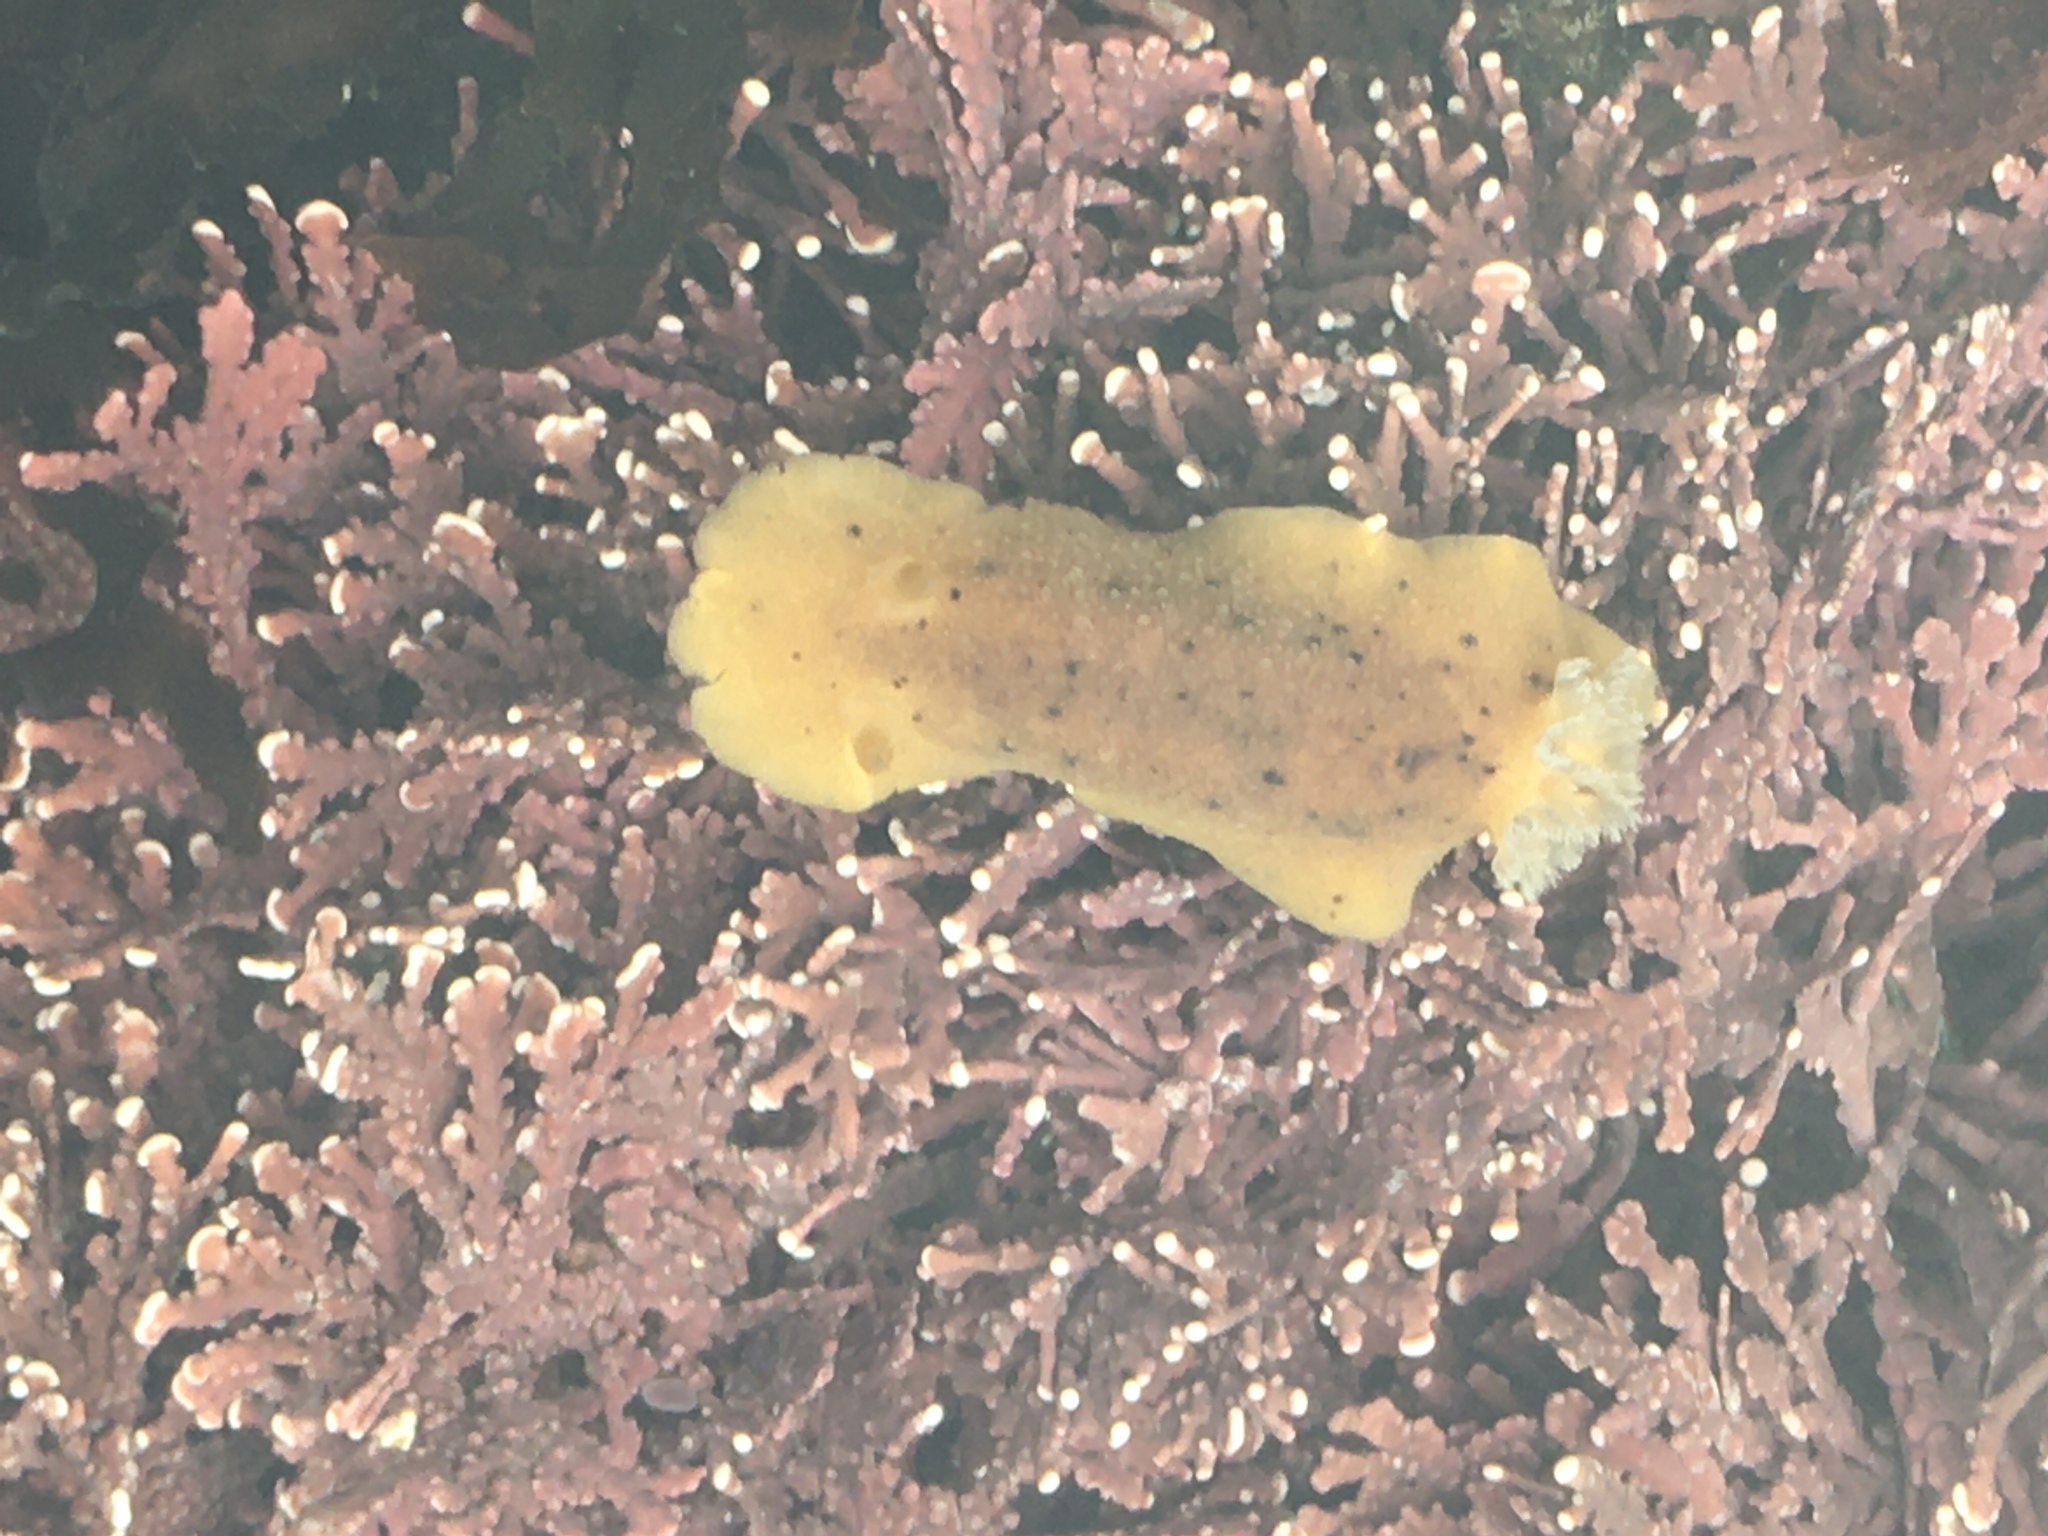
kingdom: Animalia
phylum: Mollusca
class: Gastropoda
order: Nudibranchia
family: Discodorididae
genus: Geitodoris
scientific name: Geitodoris heathi
